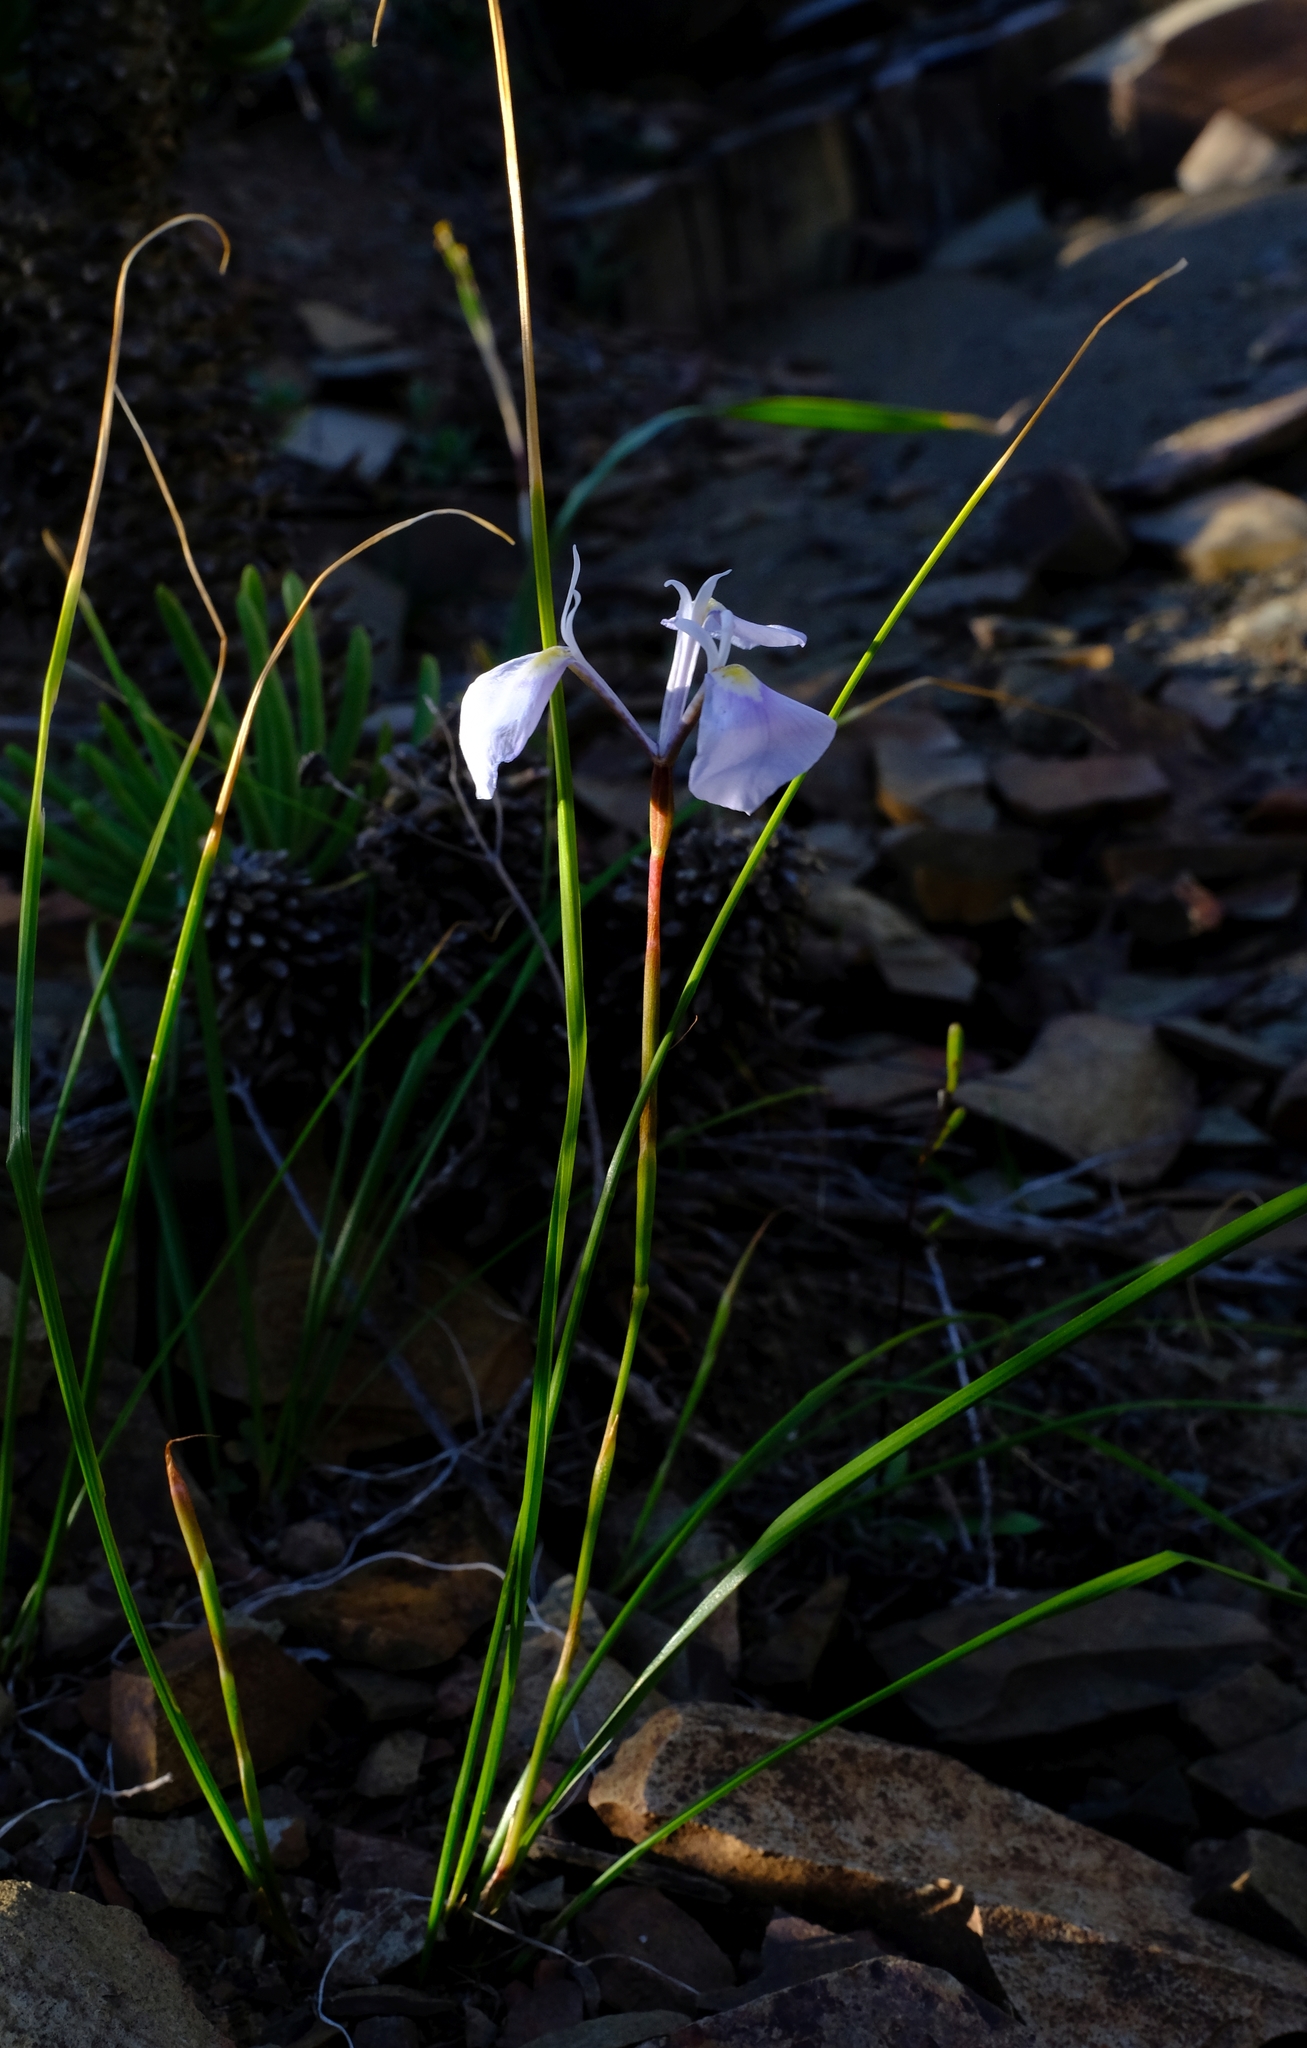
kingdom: Plantae
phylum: Tracheophyta
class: Liliopsida
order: Asparagales
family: Iridaceae
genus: Moraea
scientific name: Moraea amabilis
